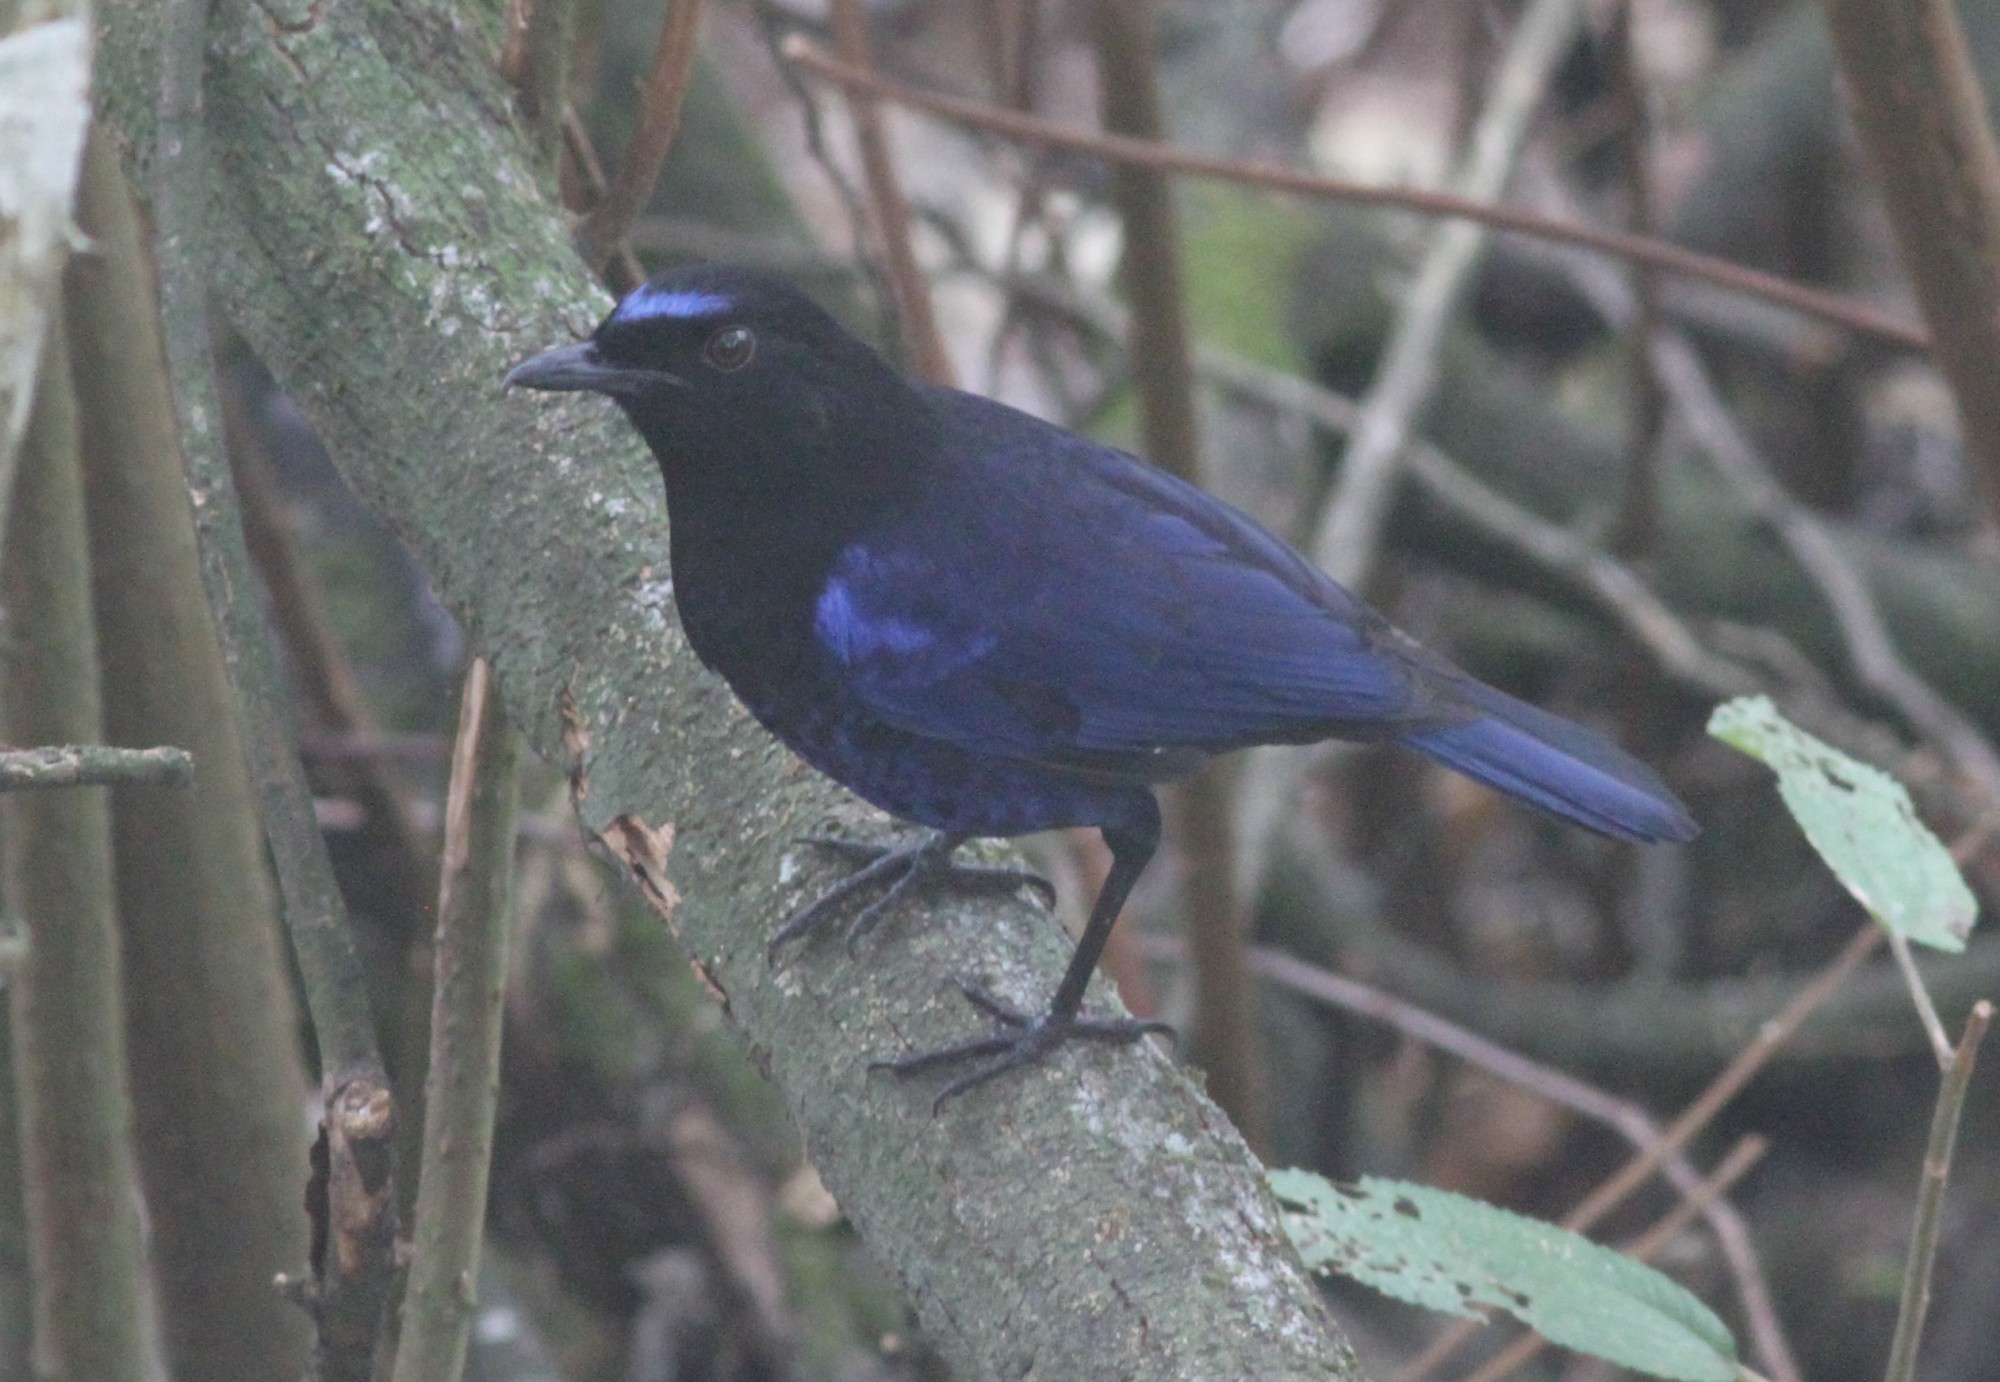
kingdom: Animalia
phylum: Chordata
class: Aves
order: Passeriformes
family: Muscicapidae
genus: Myophonus
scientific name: Myophonus horsfieldii
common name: Malabar whistling-thrush
